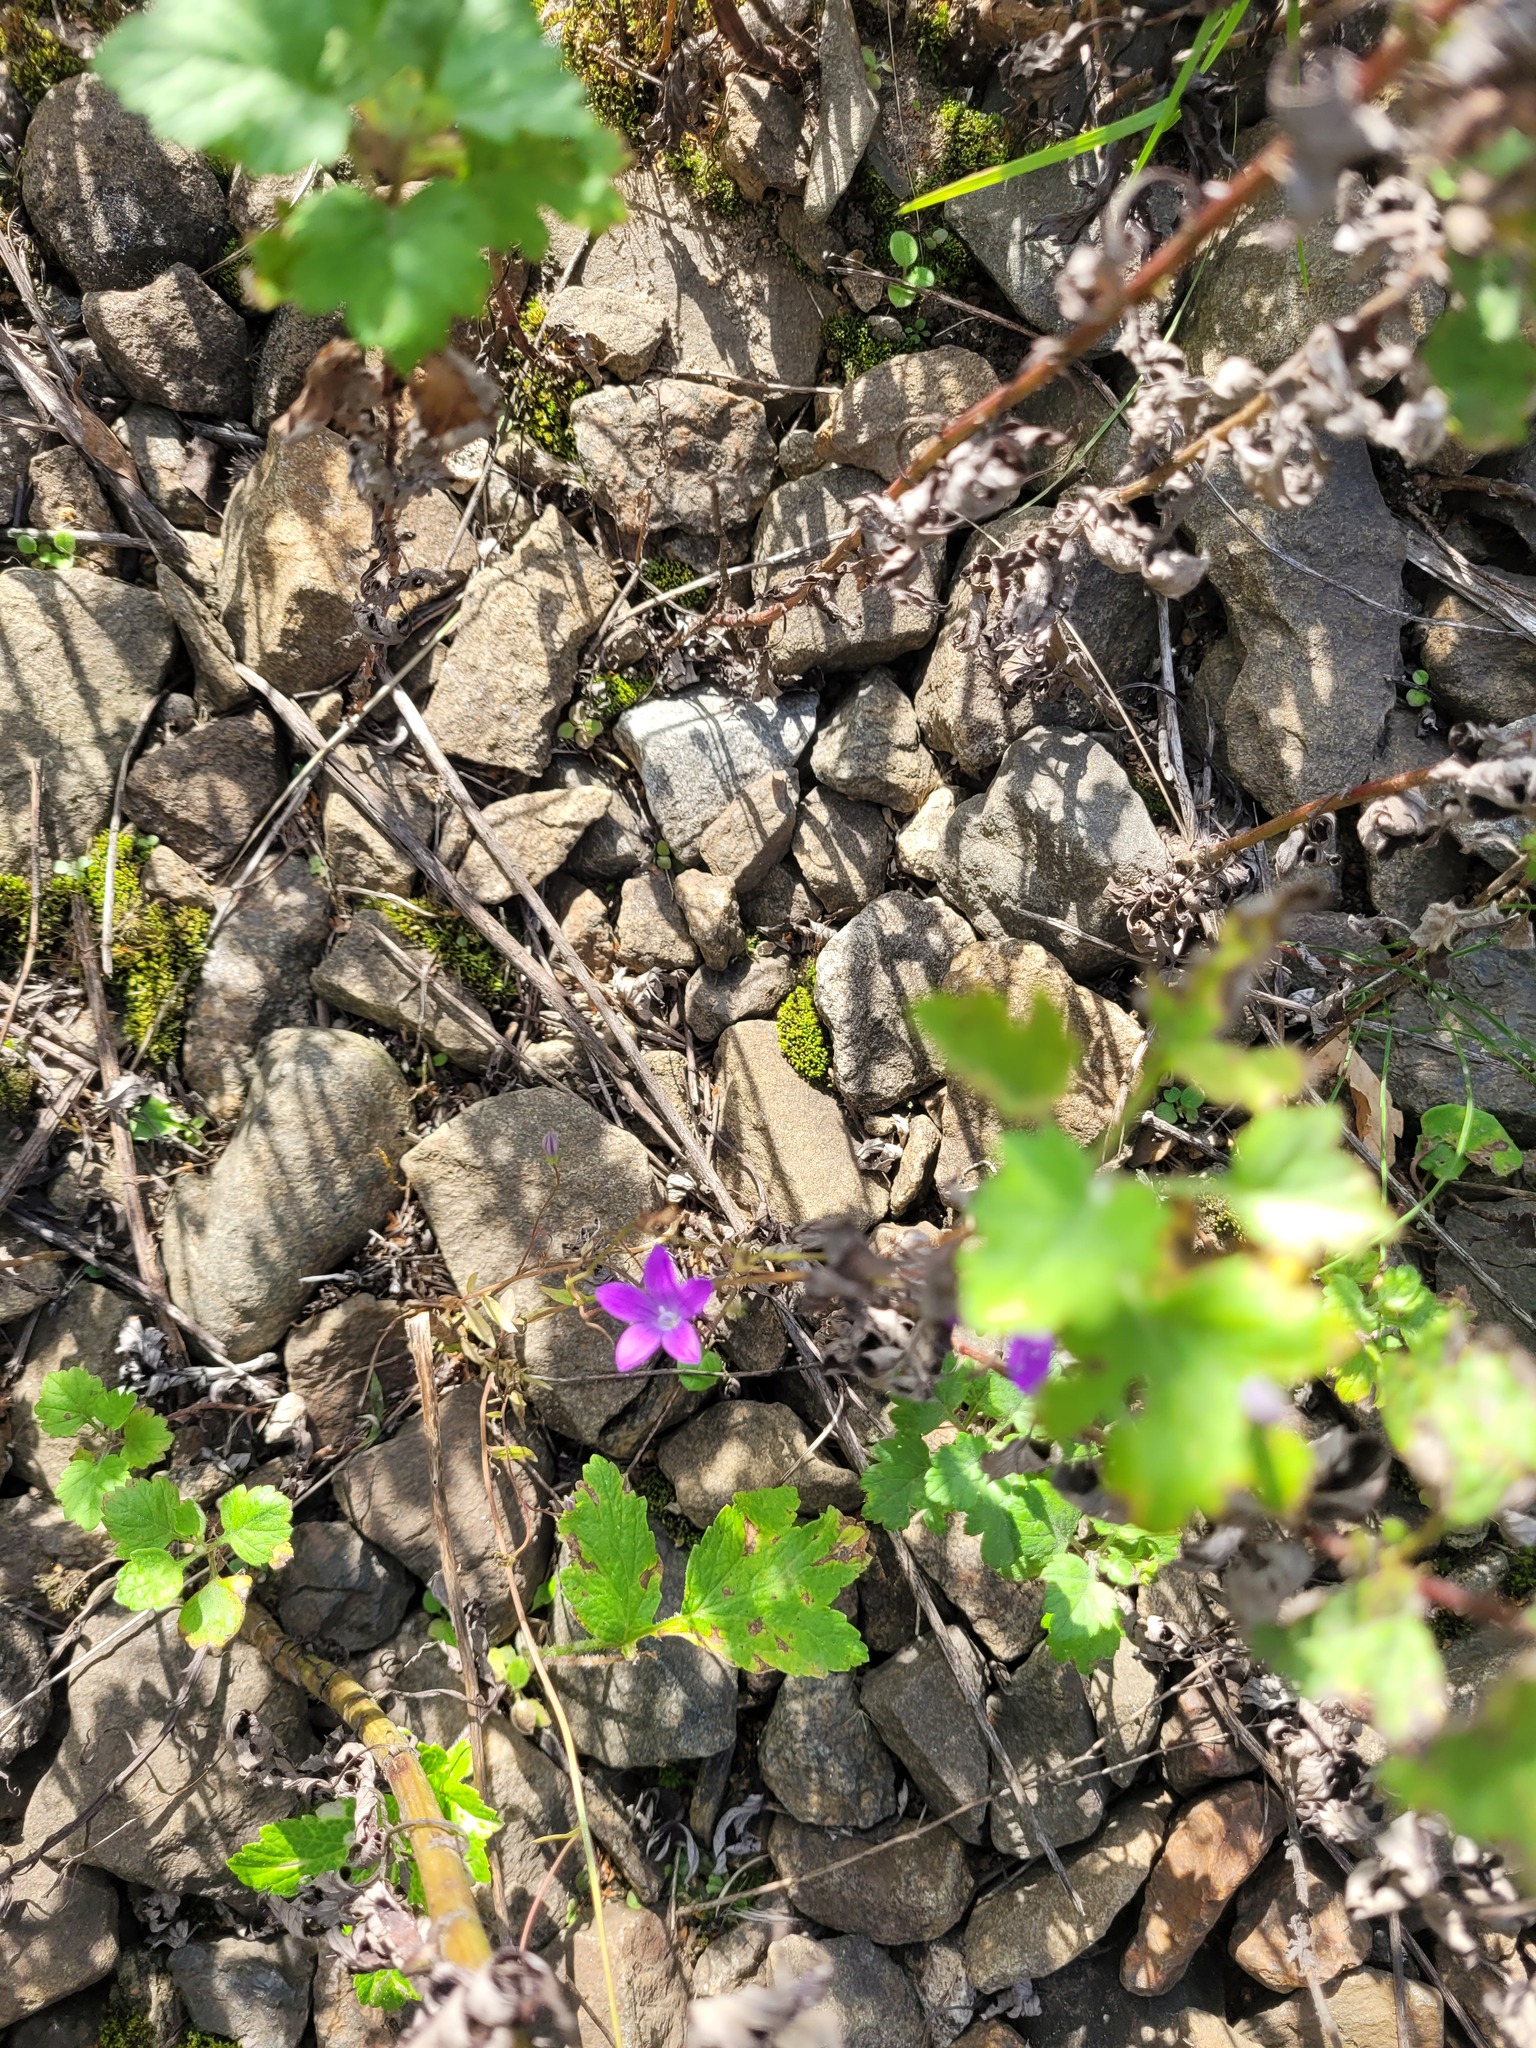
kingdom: Plantae
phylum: Tracheophyta
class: Magnoliopsida
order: Asterales
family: Campanulaceae
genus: Campanula
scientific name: Campanula patula
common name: Spreading bellflower
